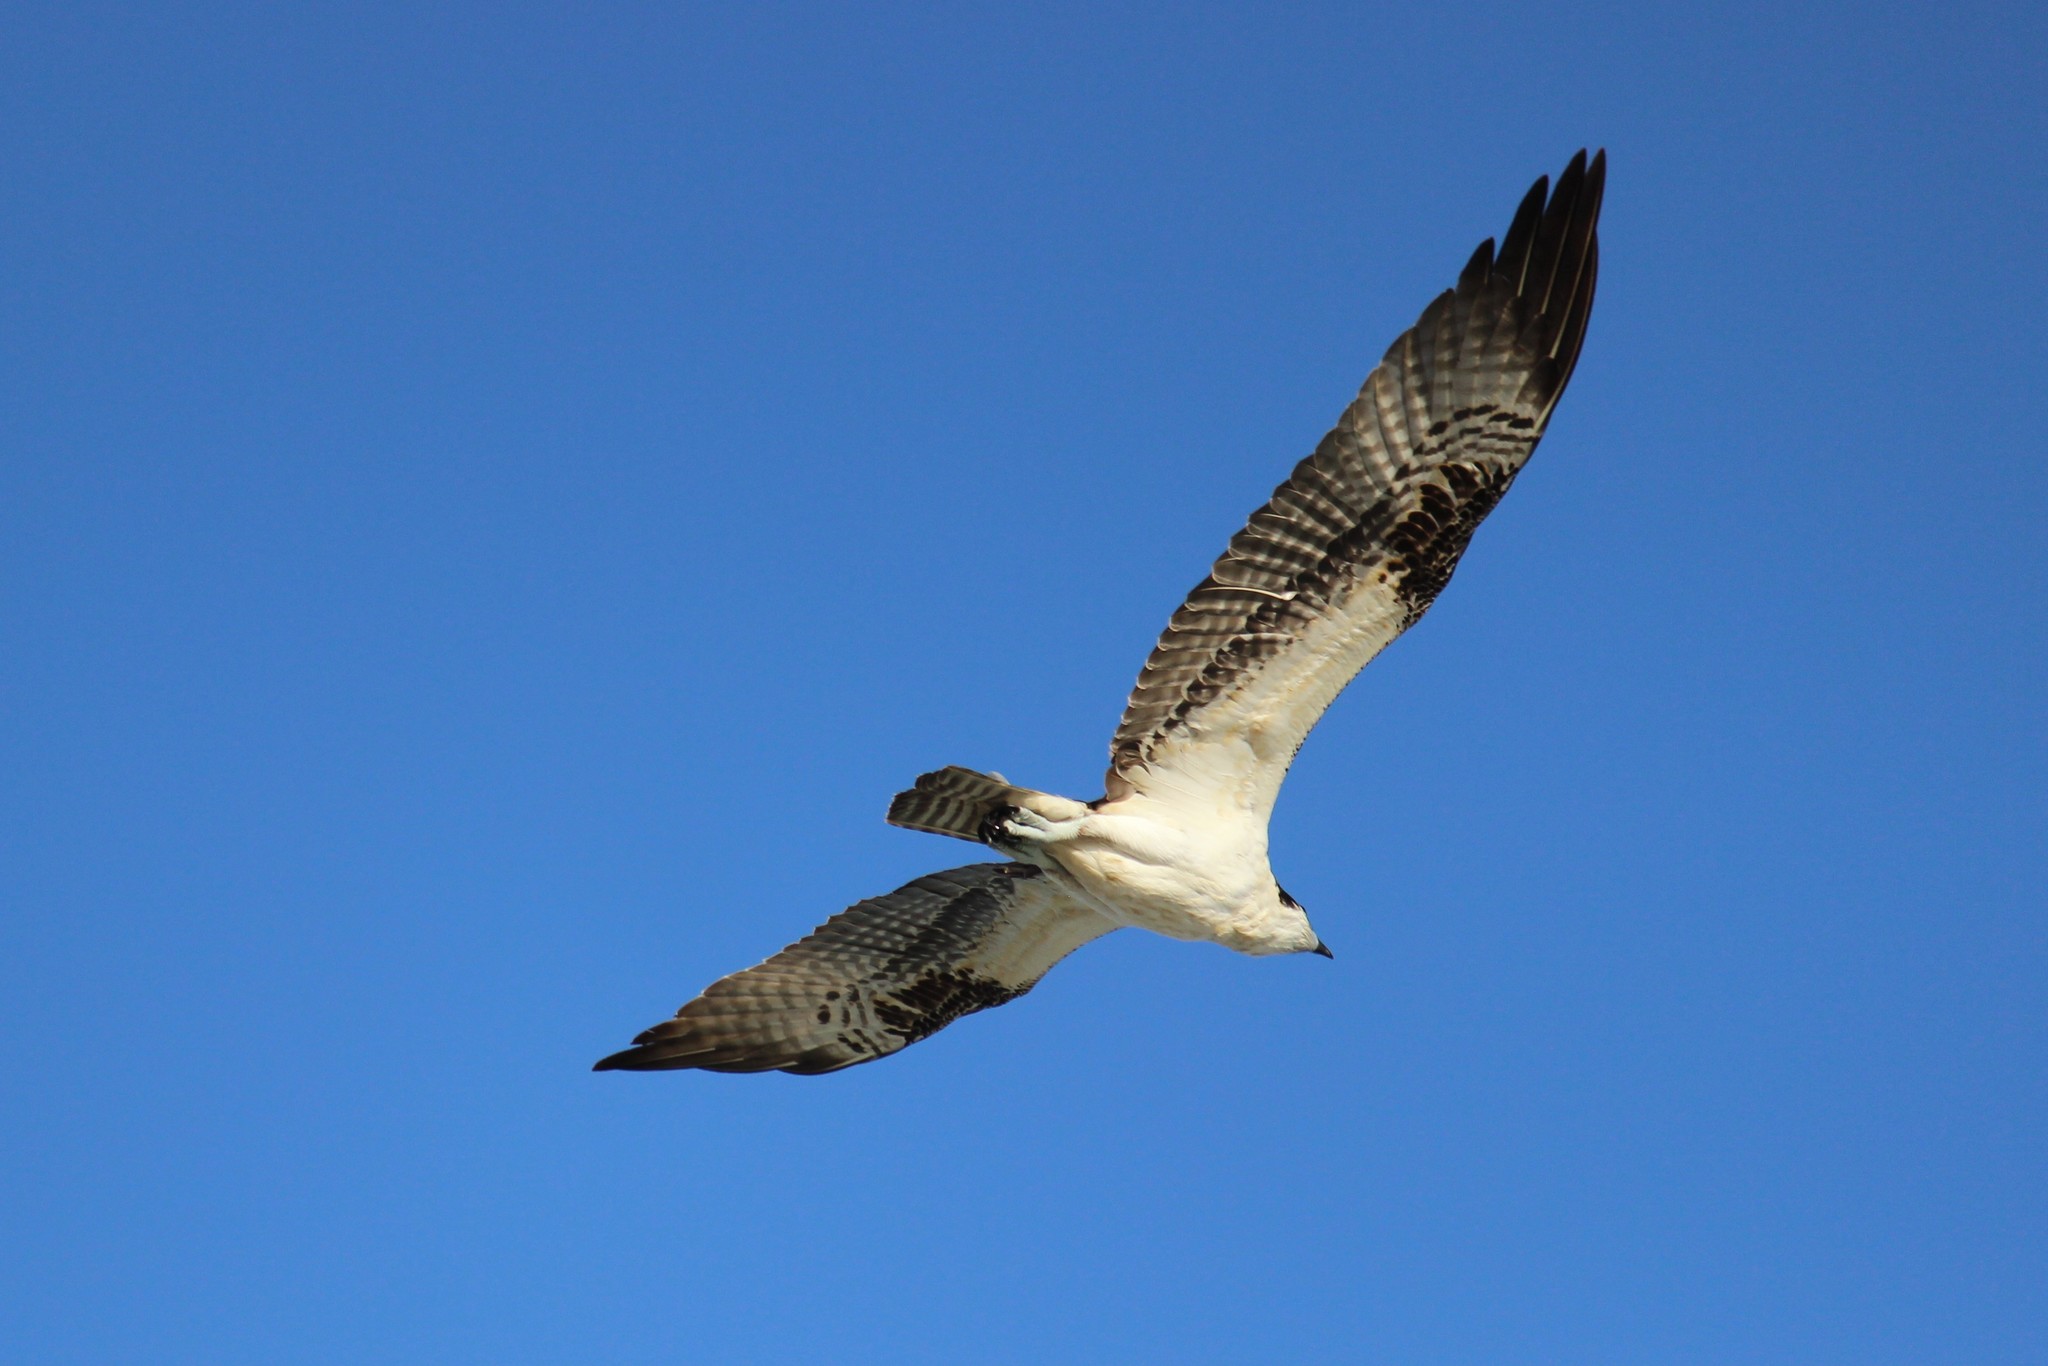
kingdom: Animalia
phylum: Chordata
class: Aves
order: Accipitriformes
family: Pandionidae
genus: Pandion
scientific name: Pandion haliaetus
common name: Osprey
